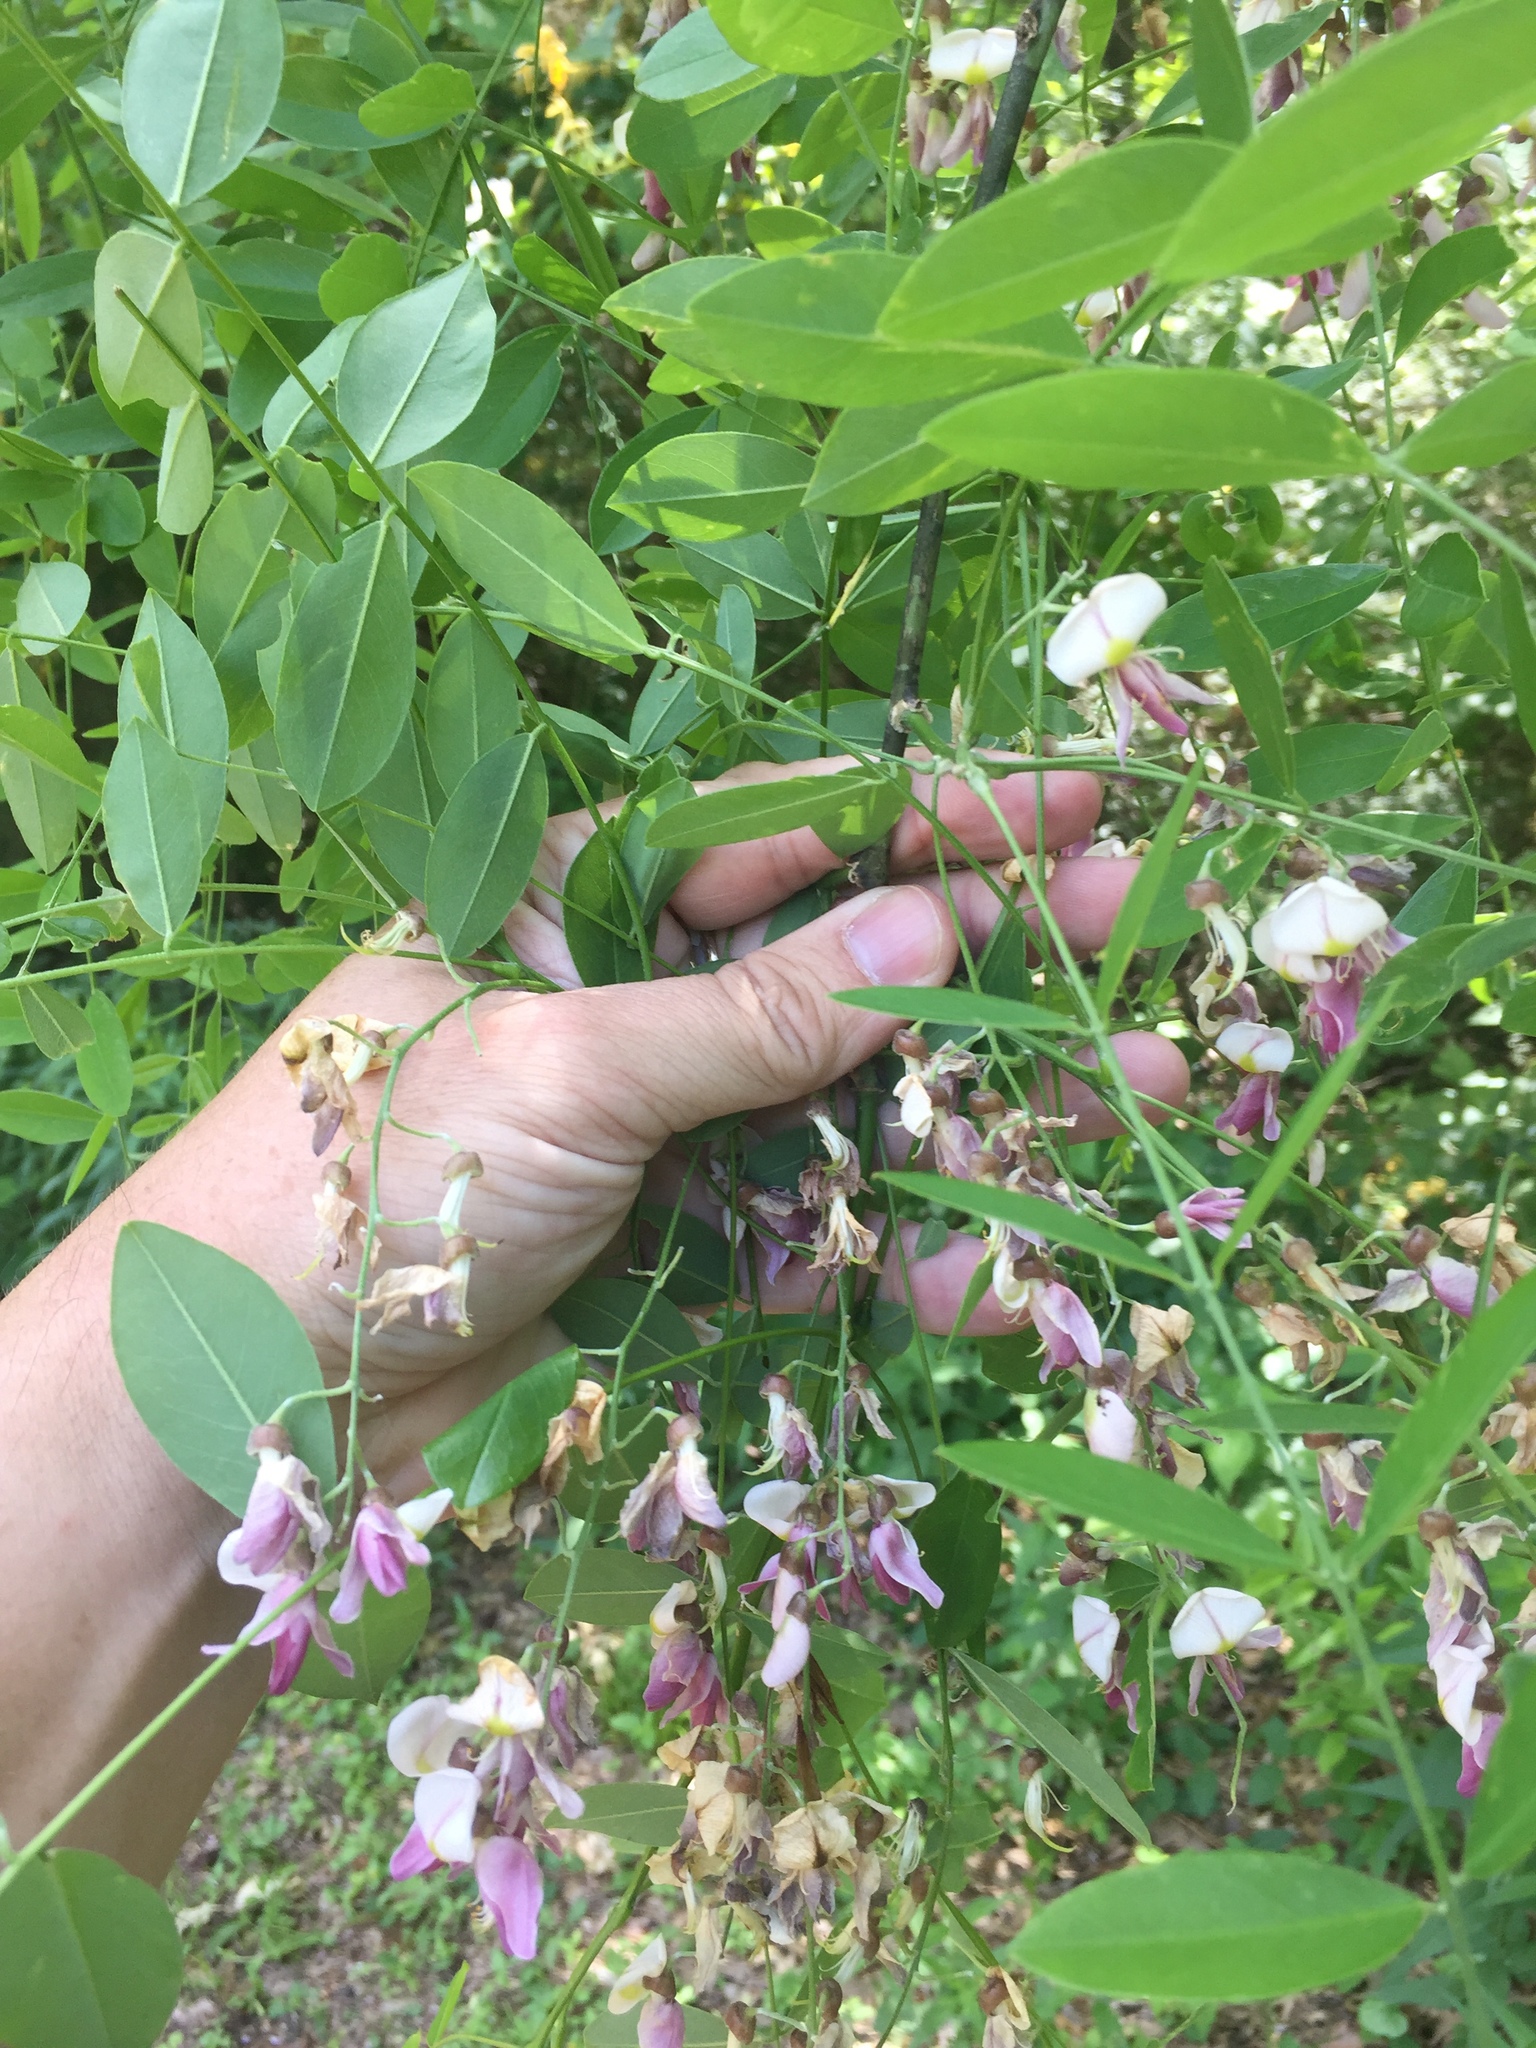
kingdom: Plantae
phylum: Tracheophyta
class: Magnoliopsida
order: Fabales
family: Fabaceae
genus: Styphnolobium
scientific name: Styphnolobium affine
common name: Texas sophora
